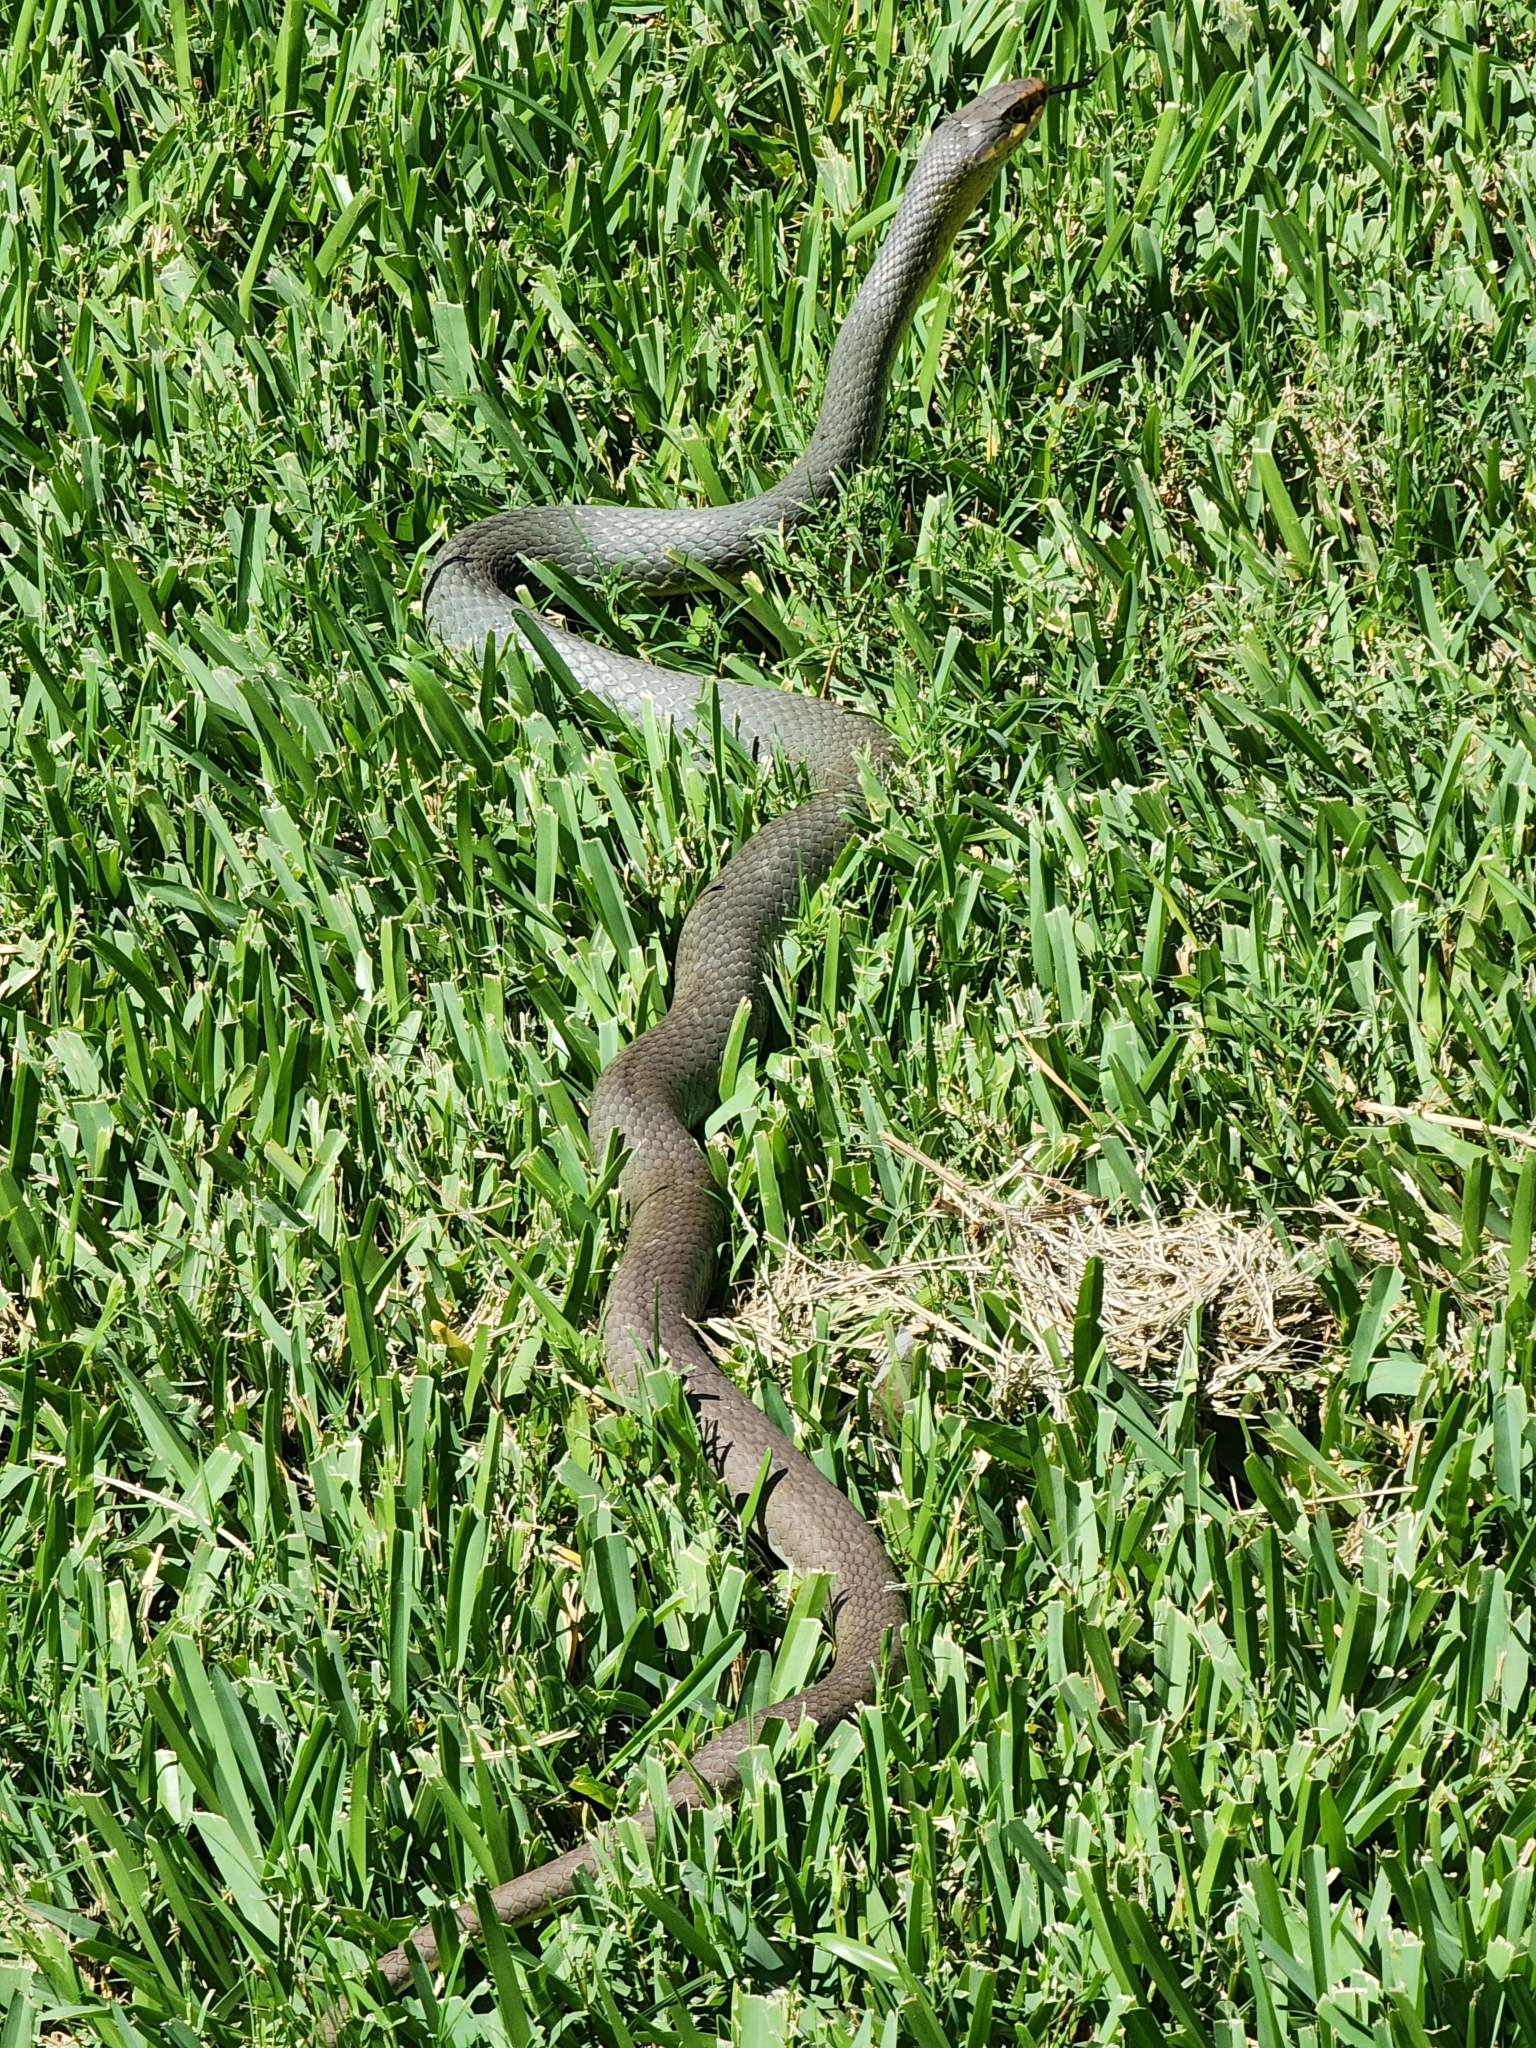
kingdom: Animalia
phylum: Chordata
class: Squamata
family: Colubridae
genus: Coluber
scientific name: Coluber constrictor
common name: Eastern racer
